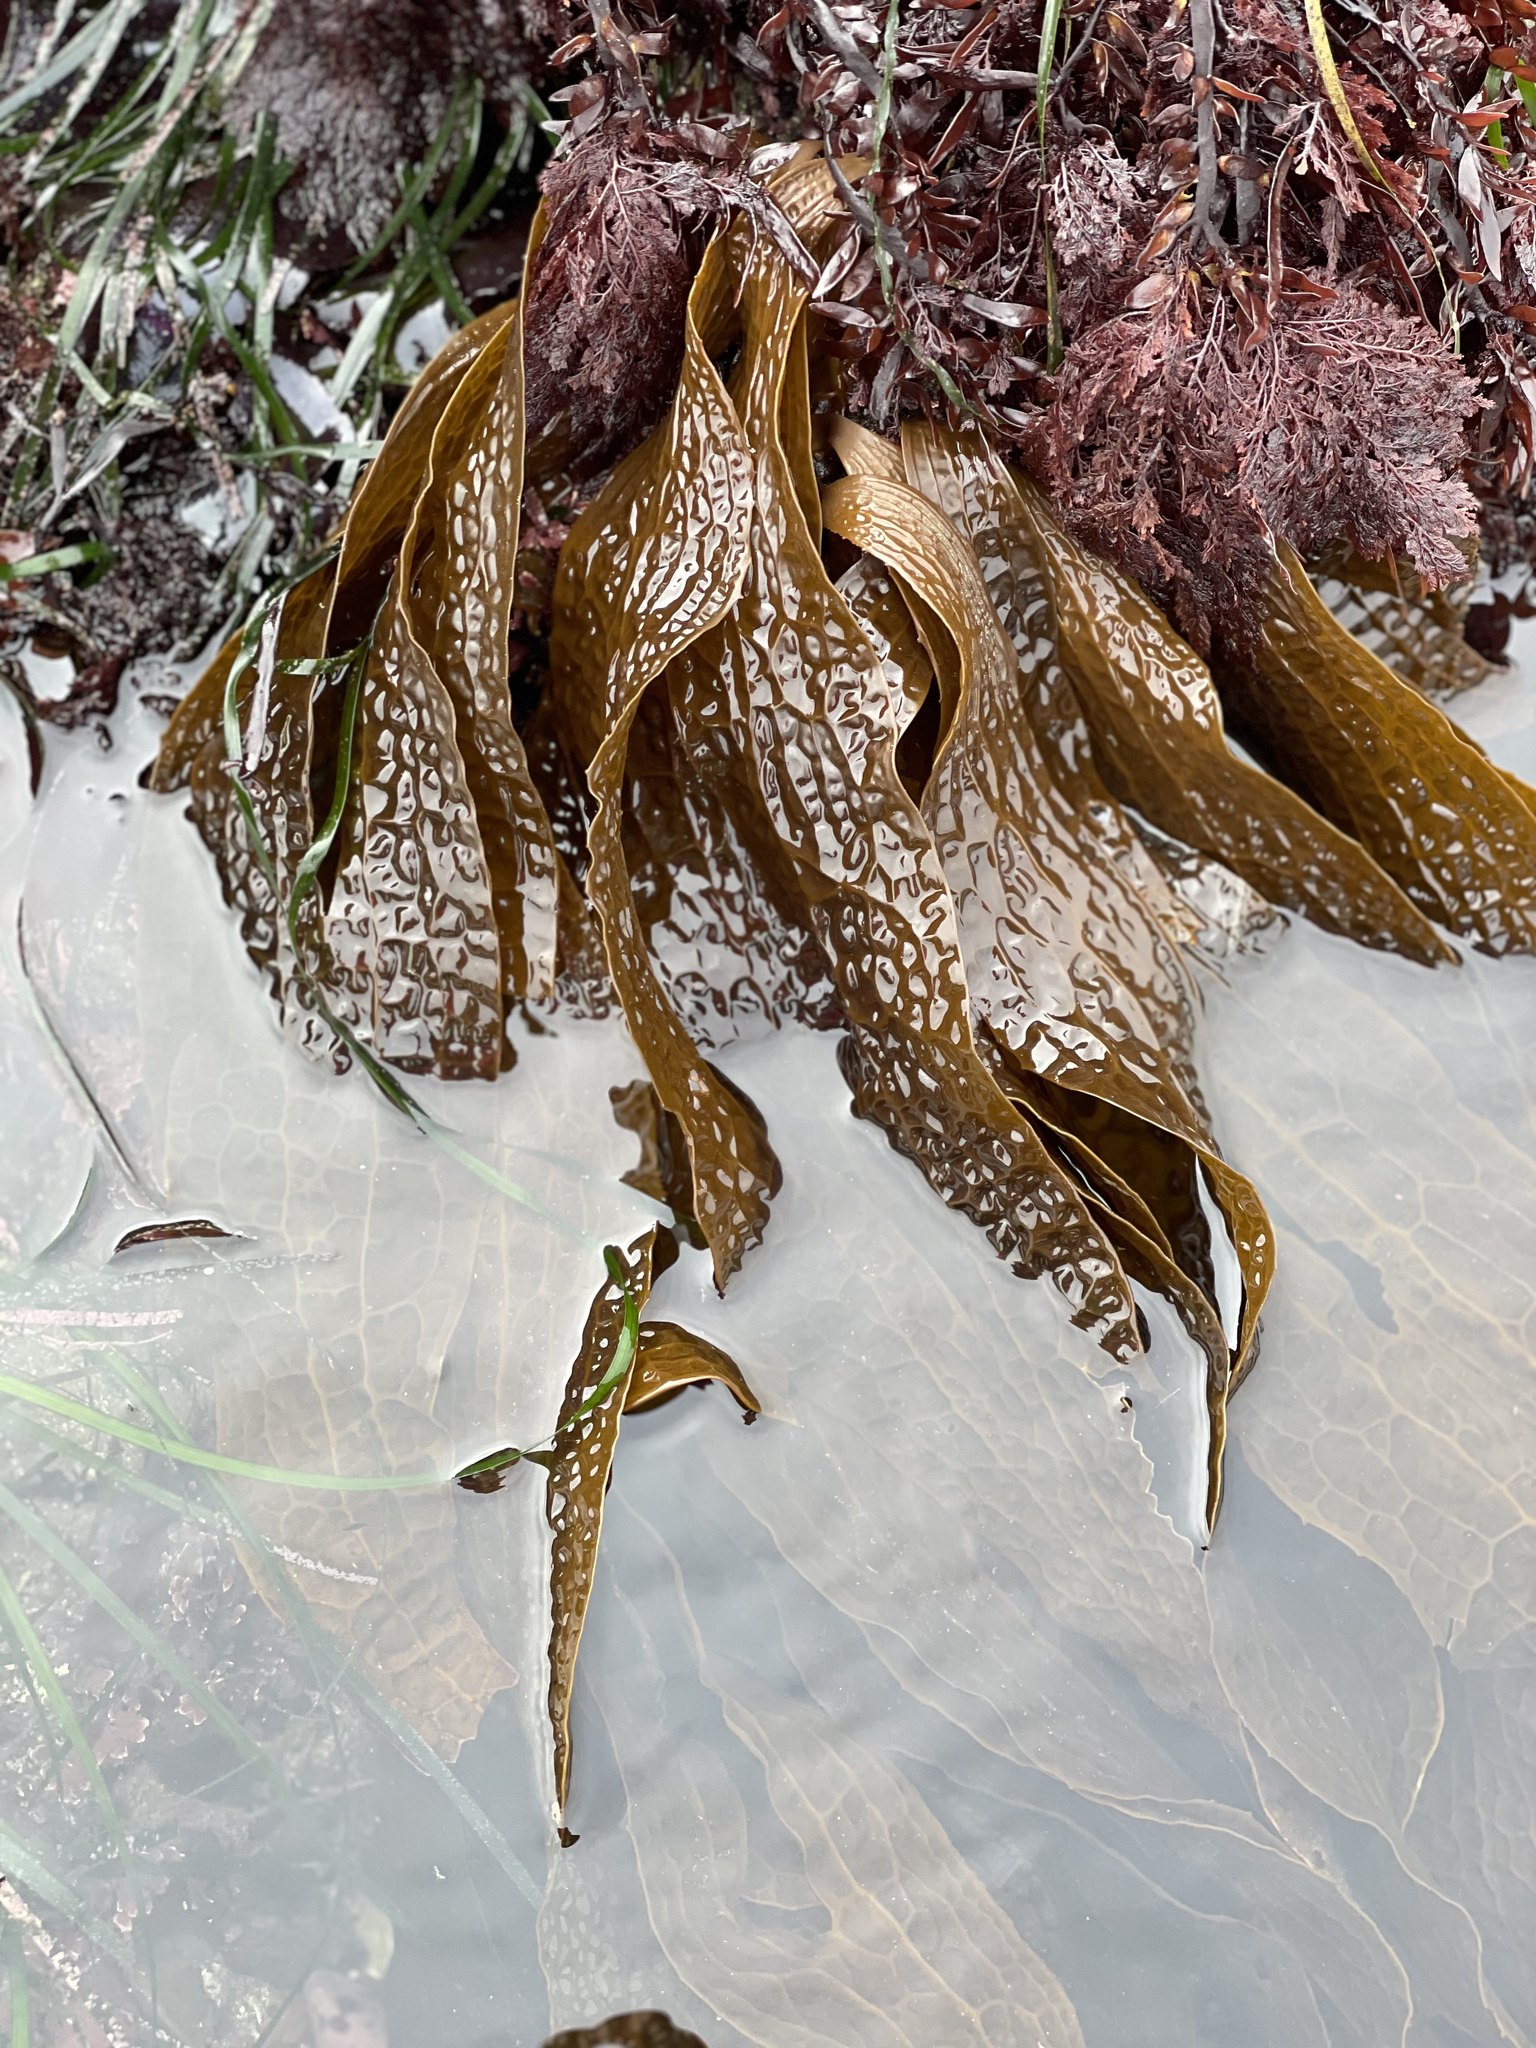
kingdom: Chromista
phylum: Ochrophyta
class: Phaeophyceae
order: Laminariales
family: Costariaceae
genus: Dictyoneurum
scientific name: Dictyoneurum californicum
